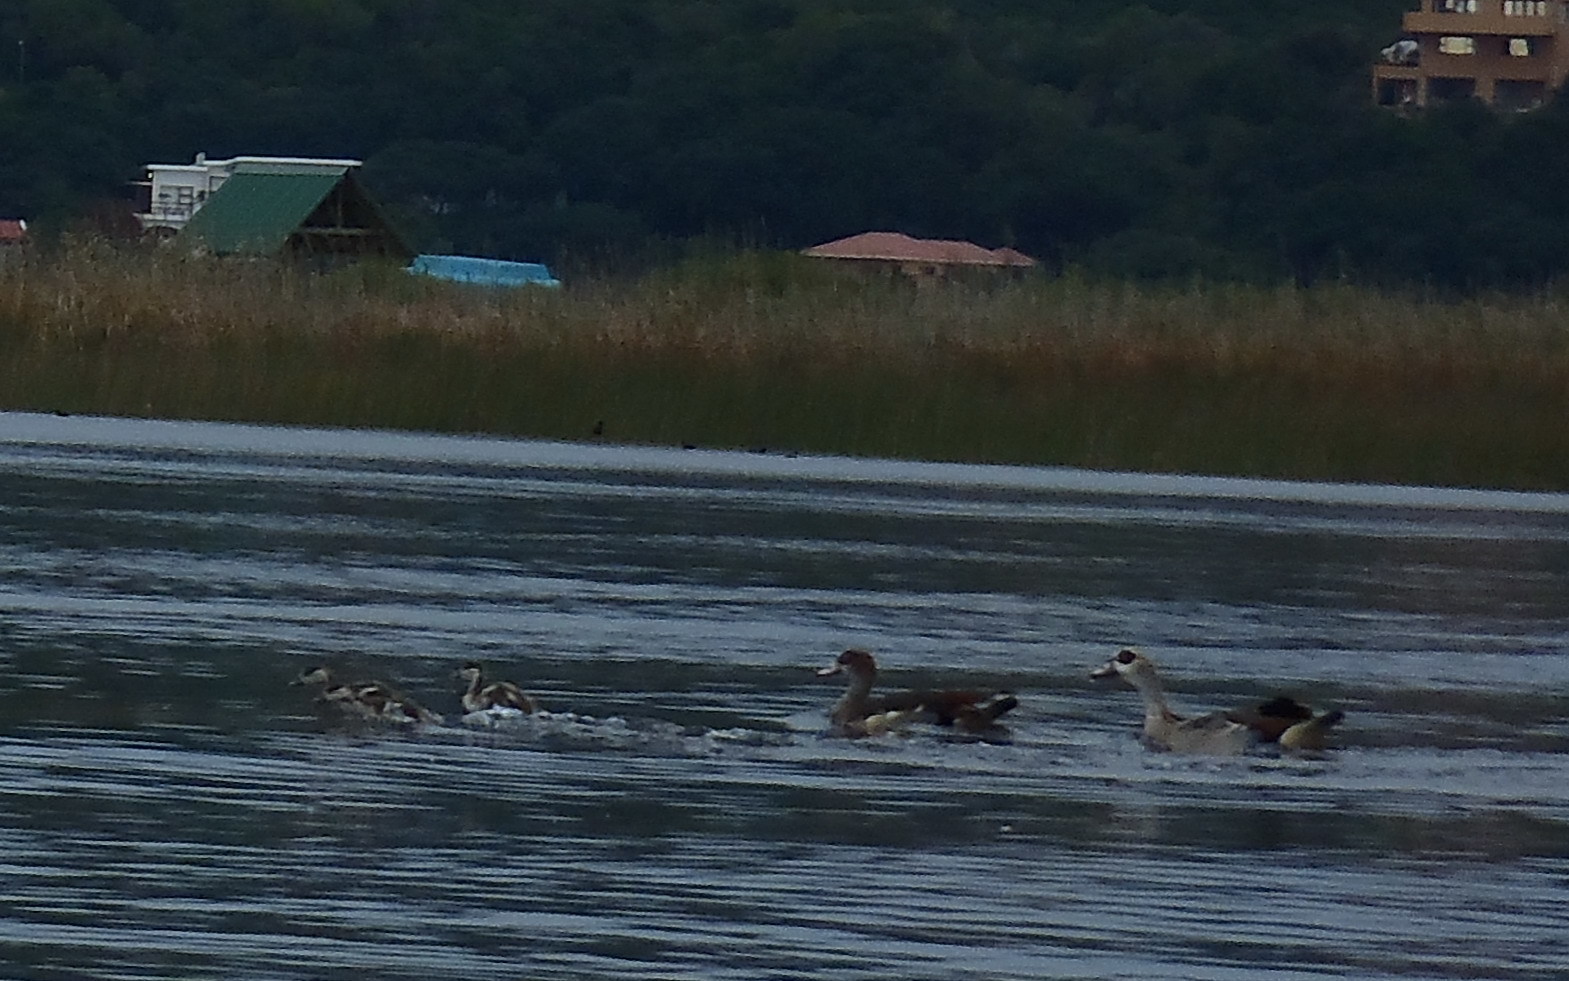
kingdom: Animalia
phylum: Chordata
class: Aves
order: Anseriformes
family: Anatidae
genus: Alopochen
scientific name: Alopochen aegyptiaca
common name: Egyptian goose
